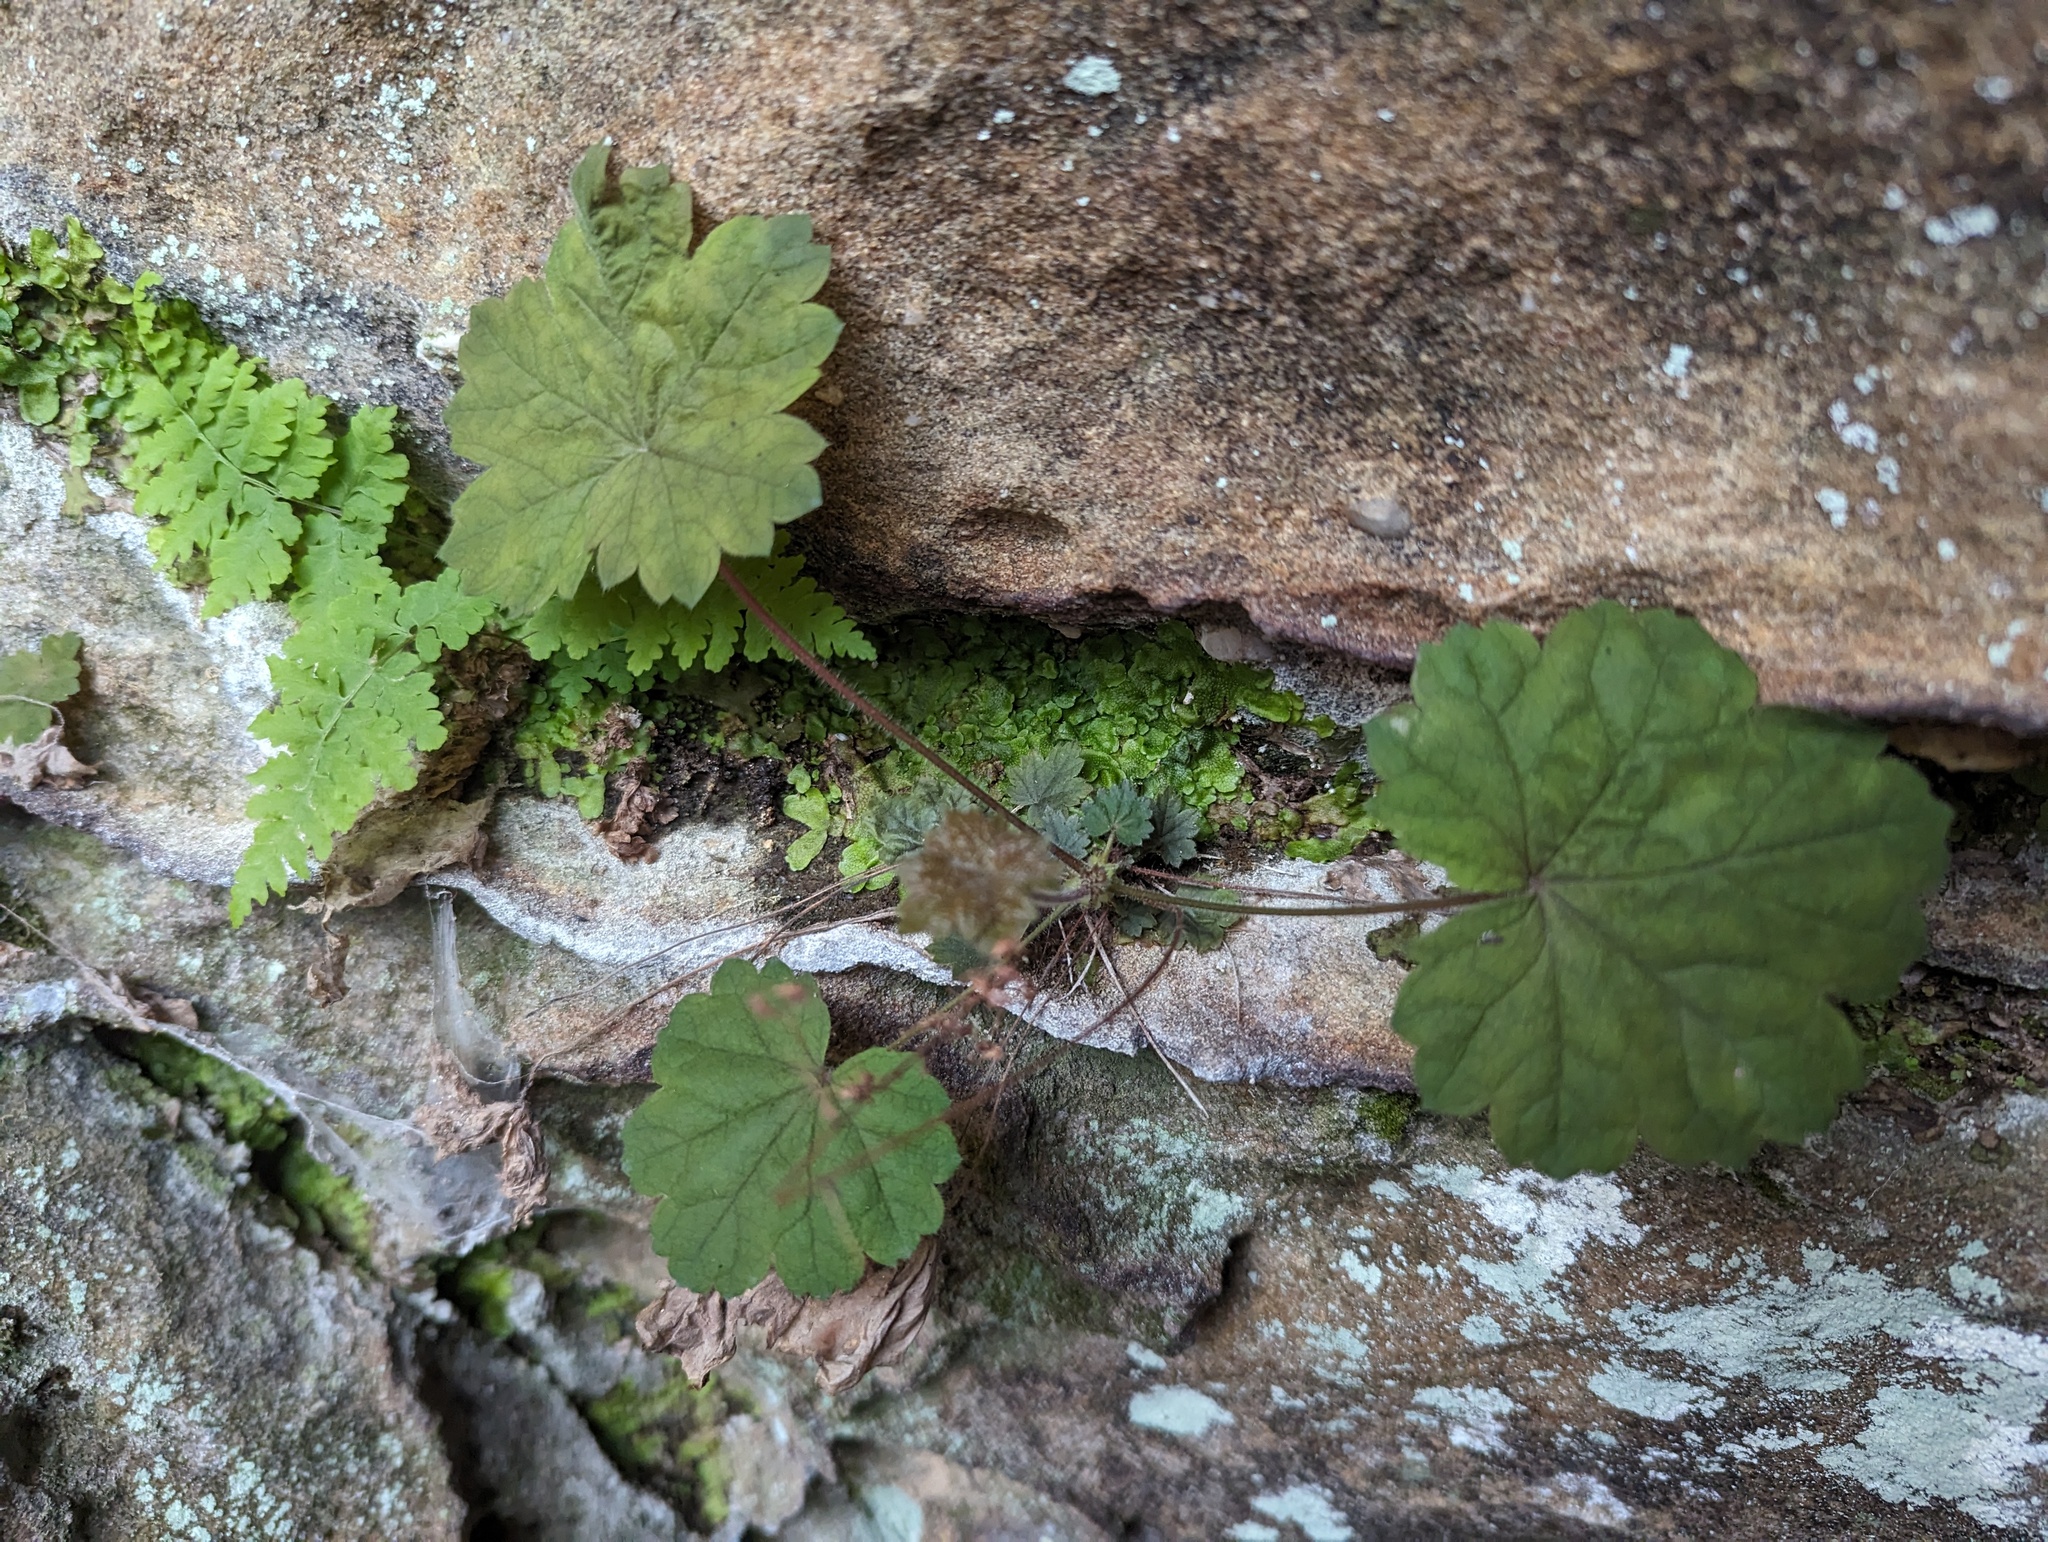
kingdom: Plantae
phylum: Tracheophyta
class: Magnoliopsida
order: Saxifragales
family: Saxifragaceae
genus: Heuchera
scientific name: Heuchera missouriensis
